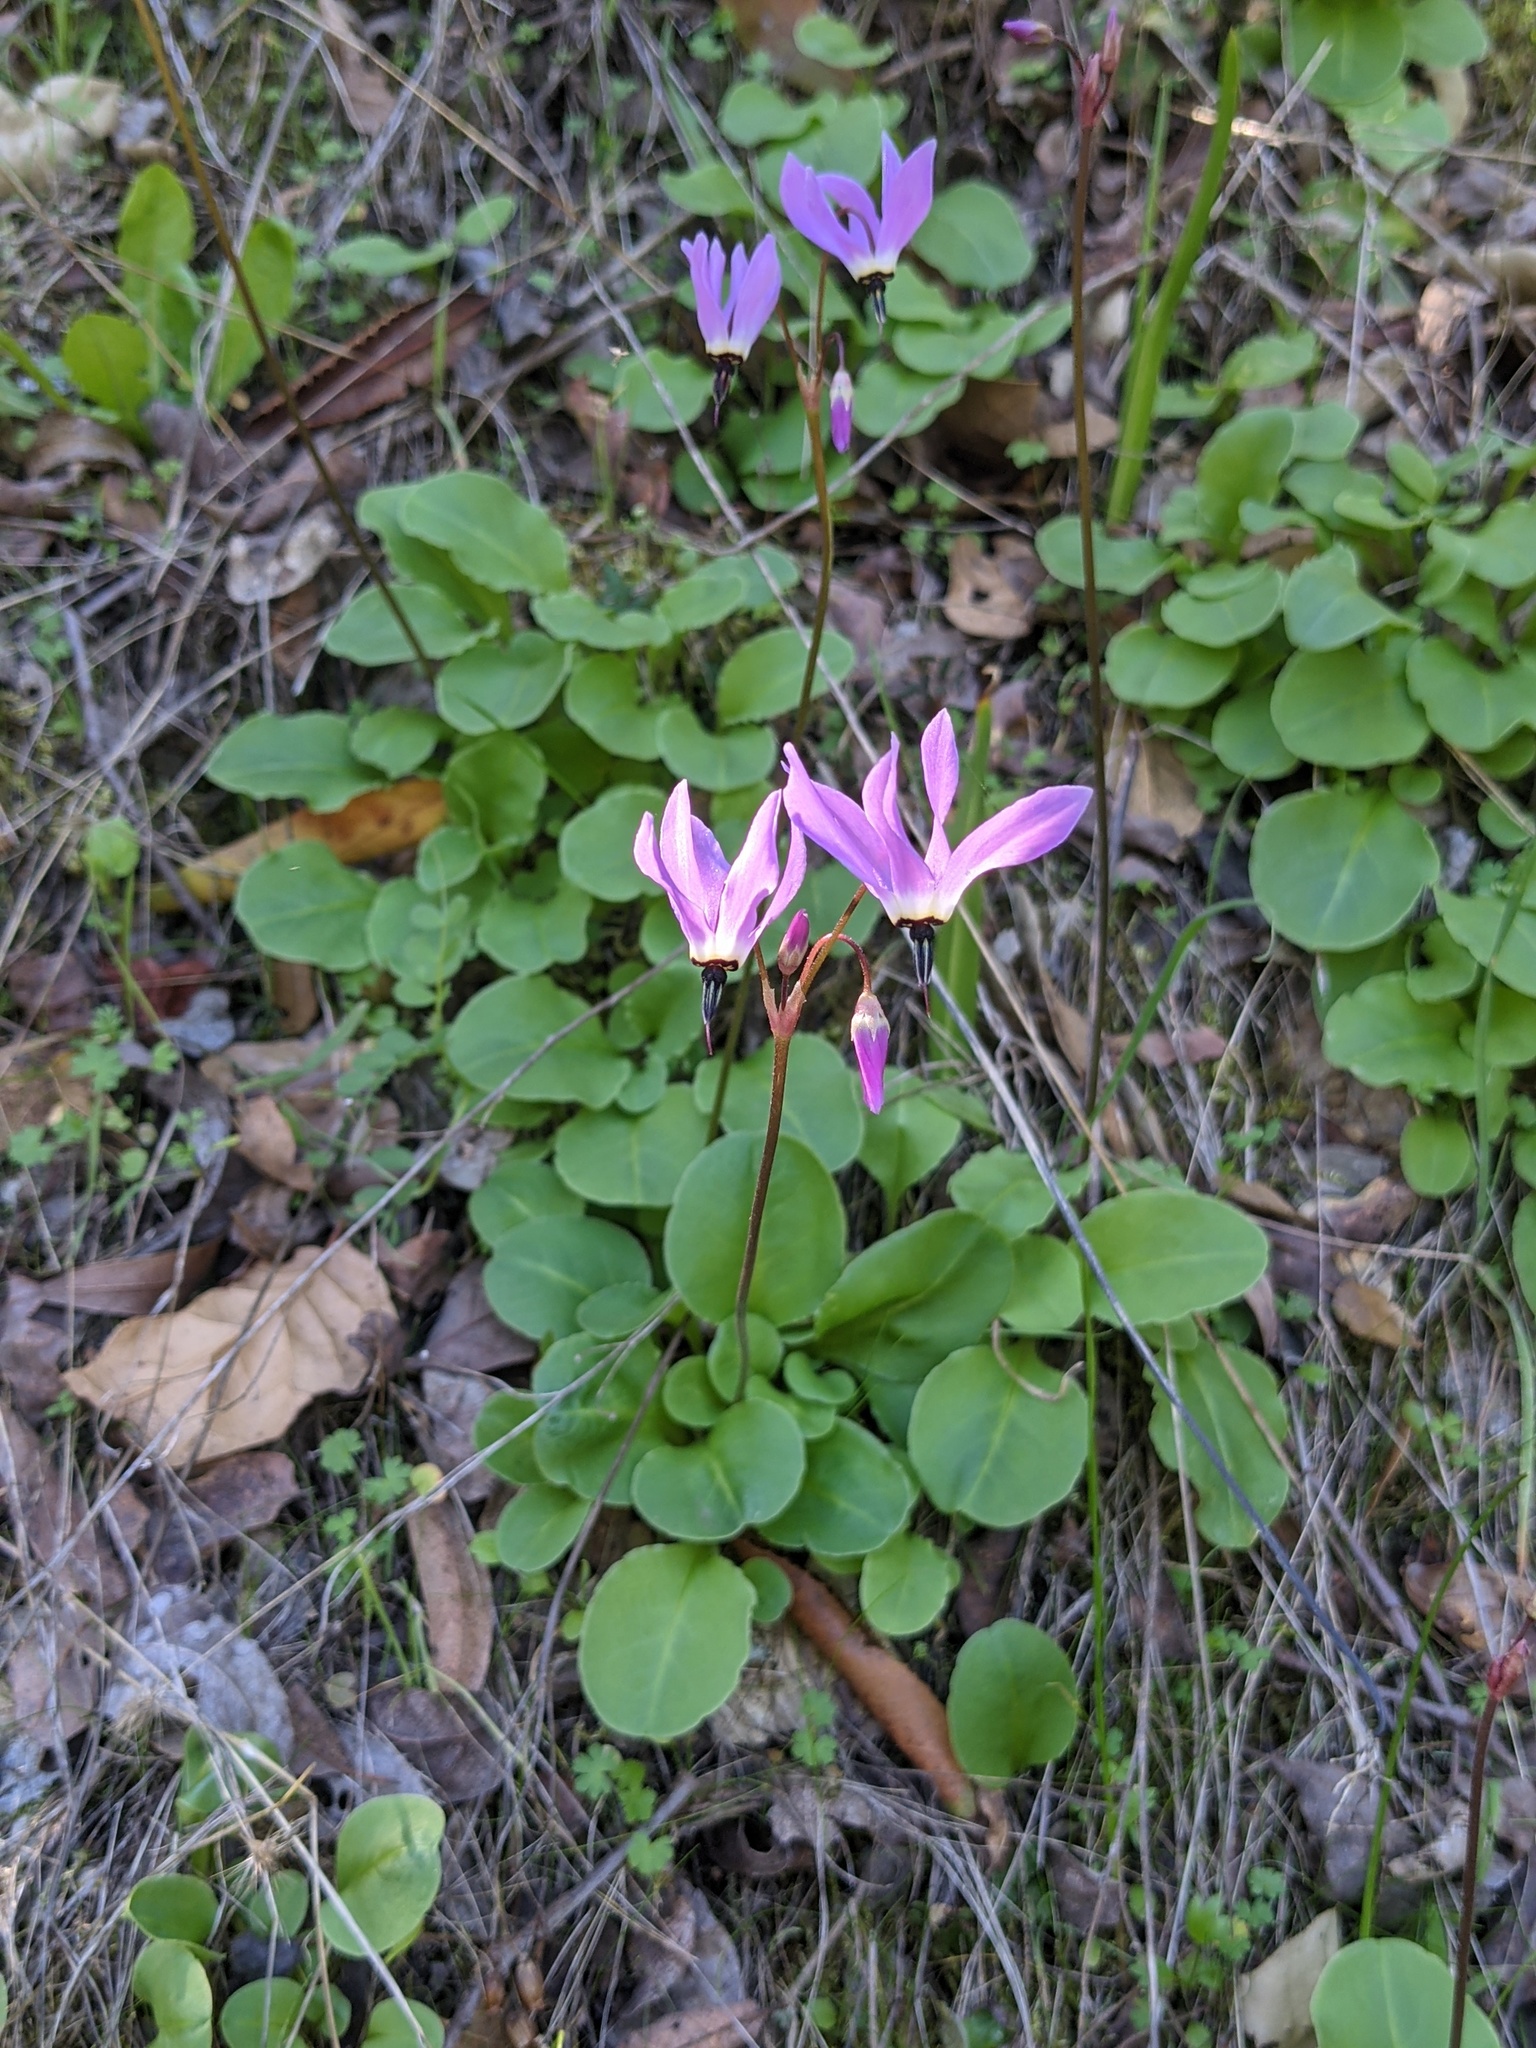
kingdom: Plantae
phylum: Tracheophyta
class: Magnoliopsida
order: Ericales
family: Primulaceae
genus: Dodecatheon
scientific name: Dodecatheon hendersonii
